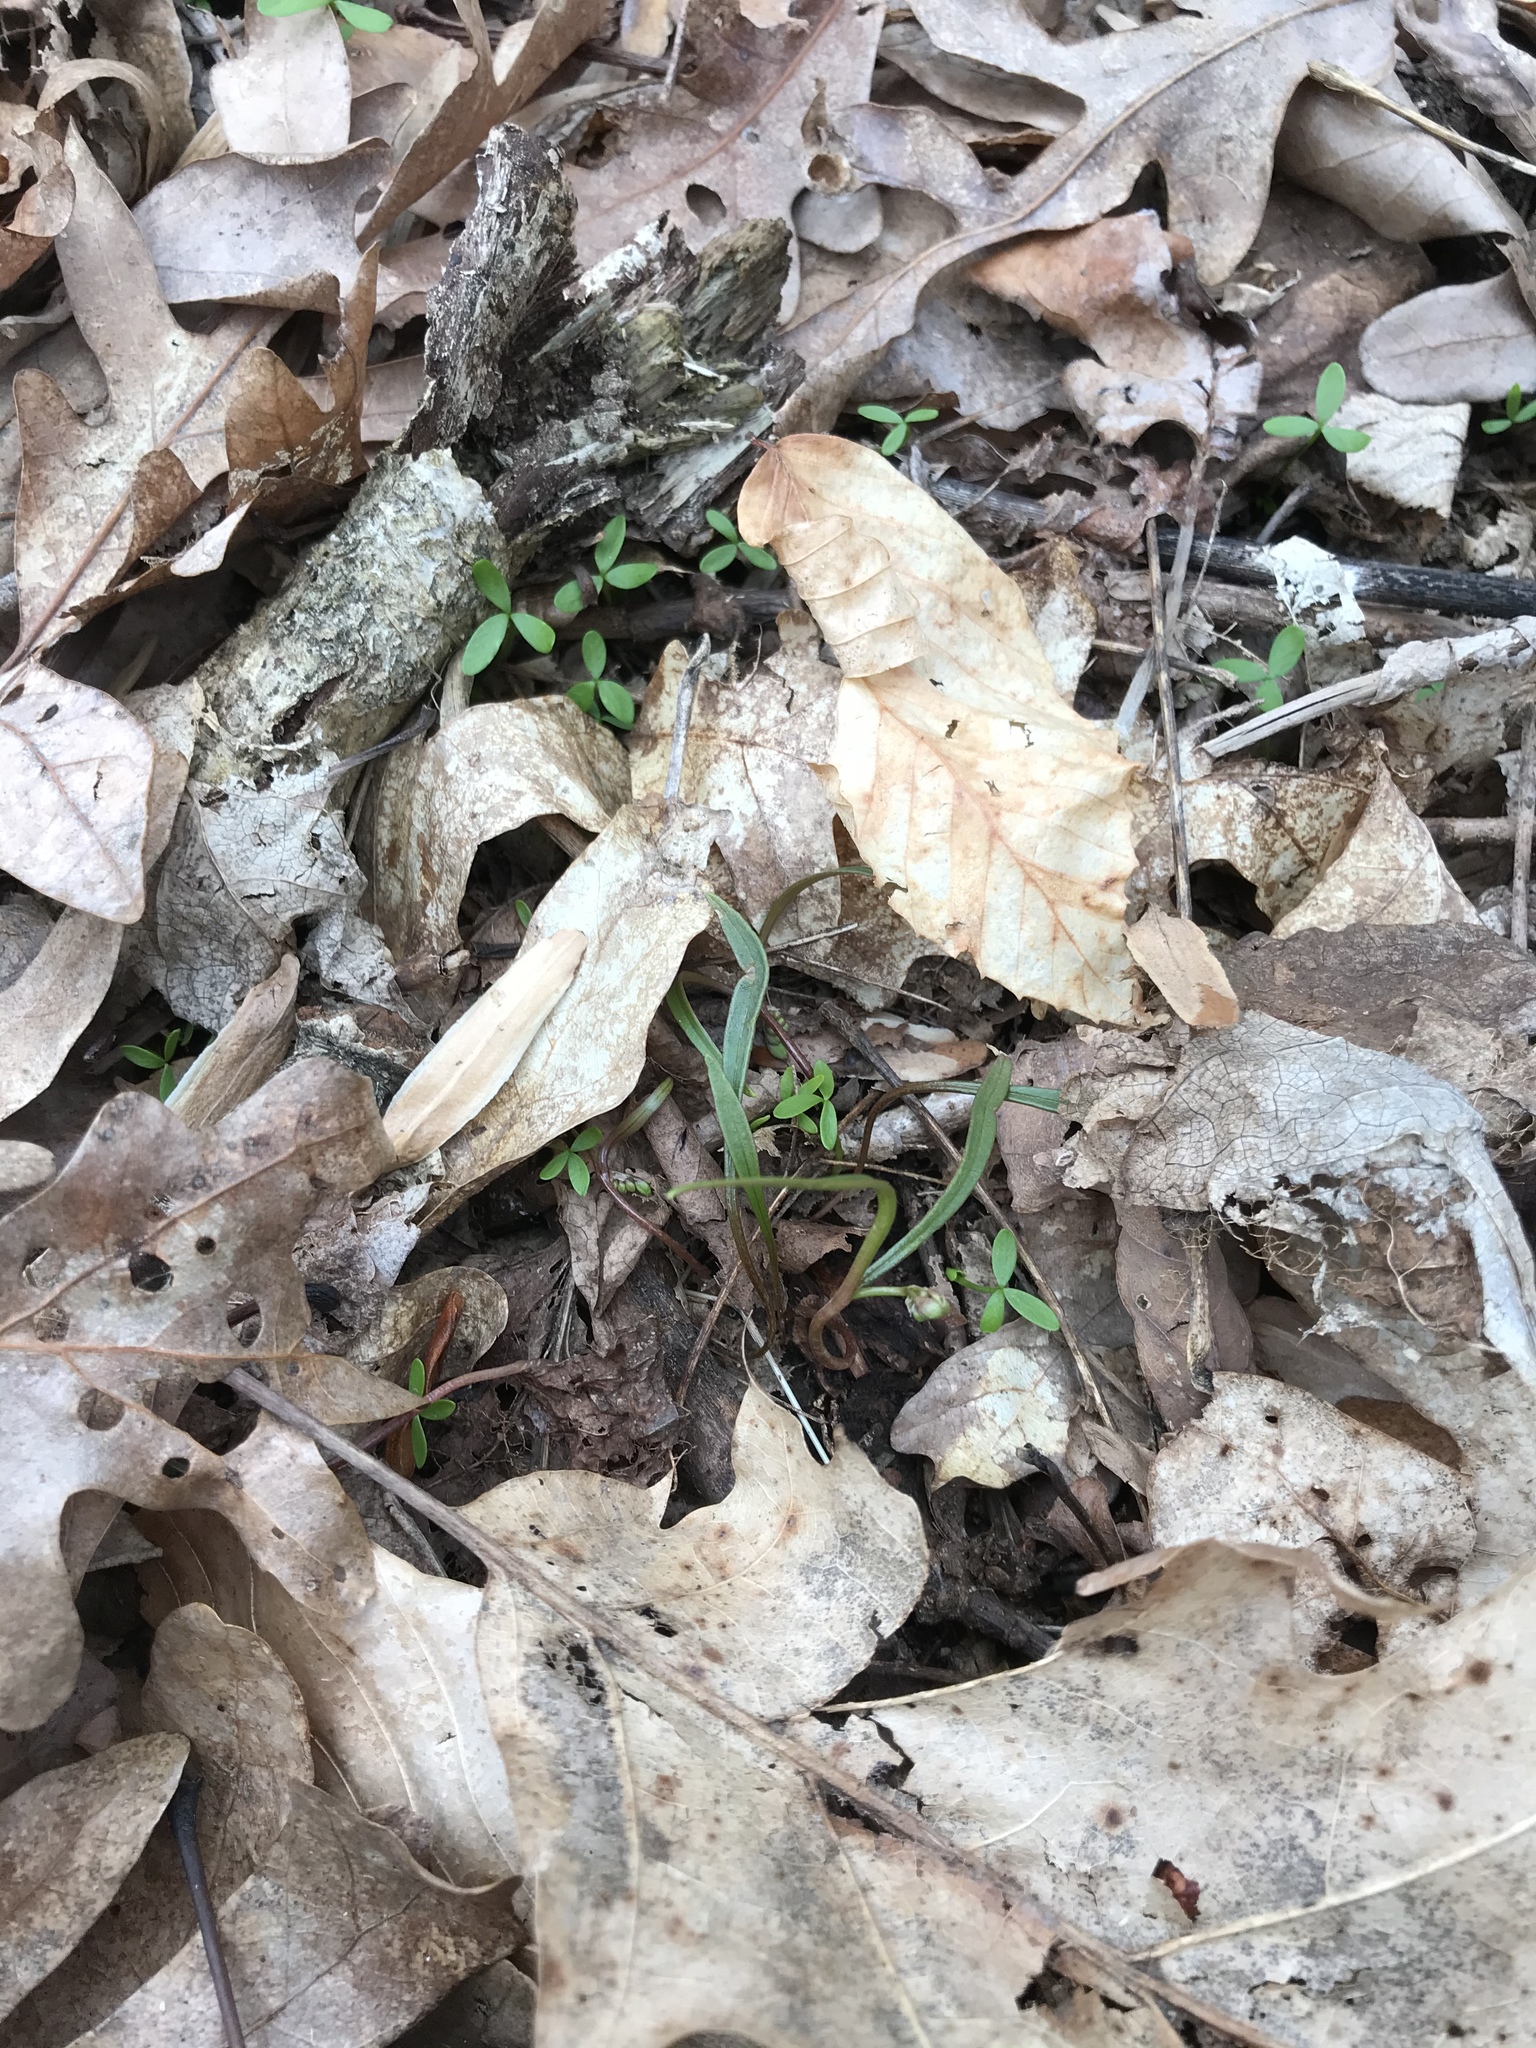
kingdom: Plantae
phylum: Tracheophyta
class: Magnoliopsida
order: Caryophyllales
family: Montiaceae
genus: Claytonia
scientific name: Claytonia virginica
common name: Virginia springbeauty
